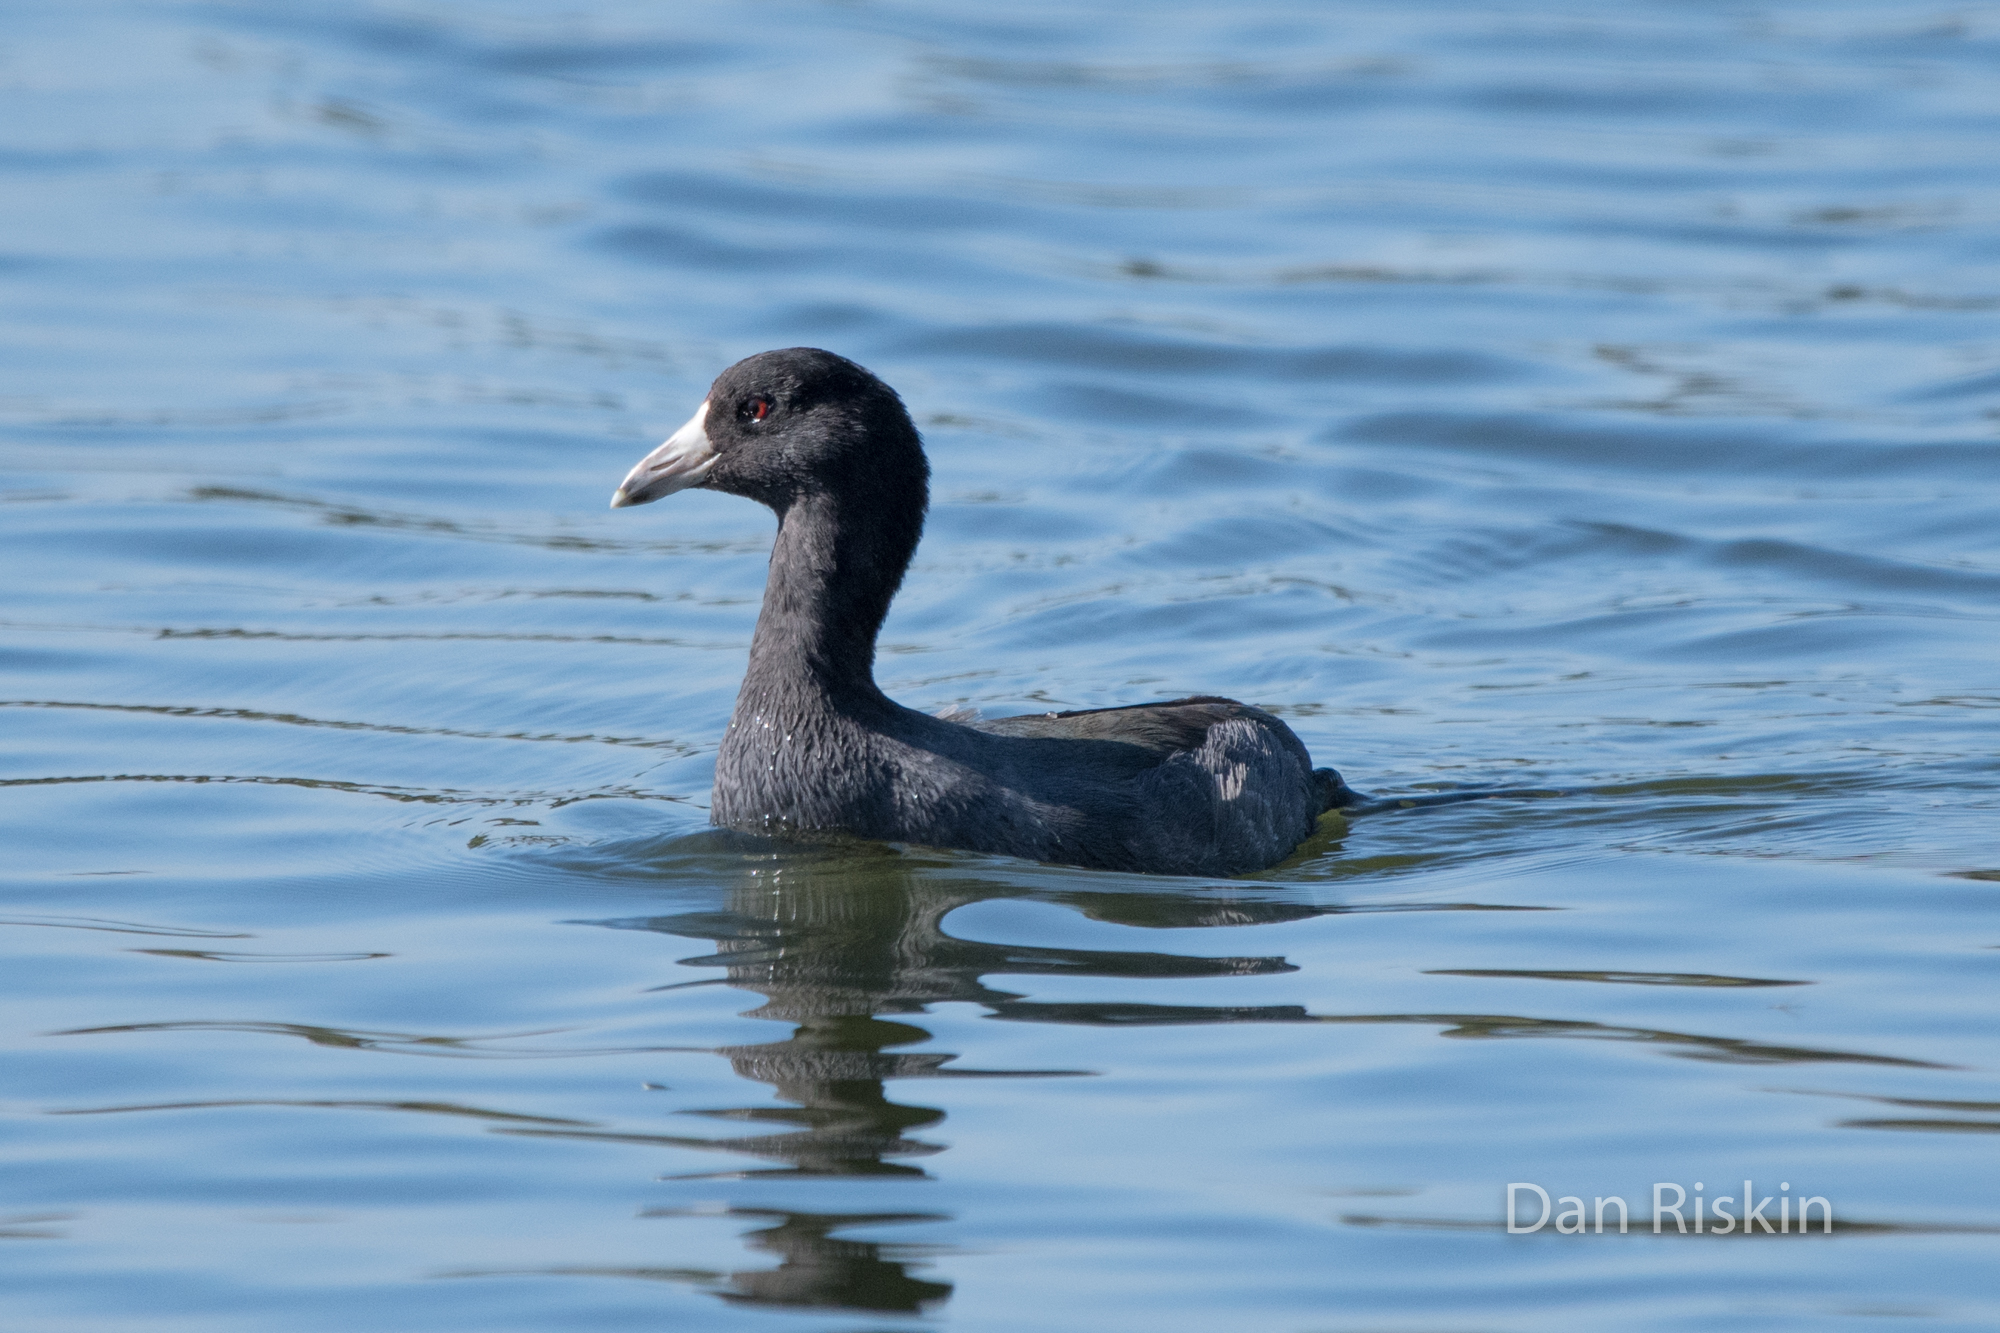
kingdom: Animalia
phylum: Chordata
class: Aves
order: Gruiformes
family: Rallidae
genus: Fulica
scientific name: Fulica americana
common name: American coot
